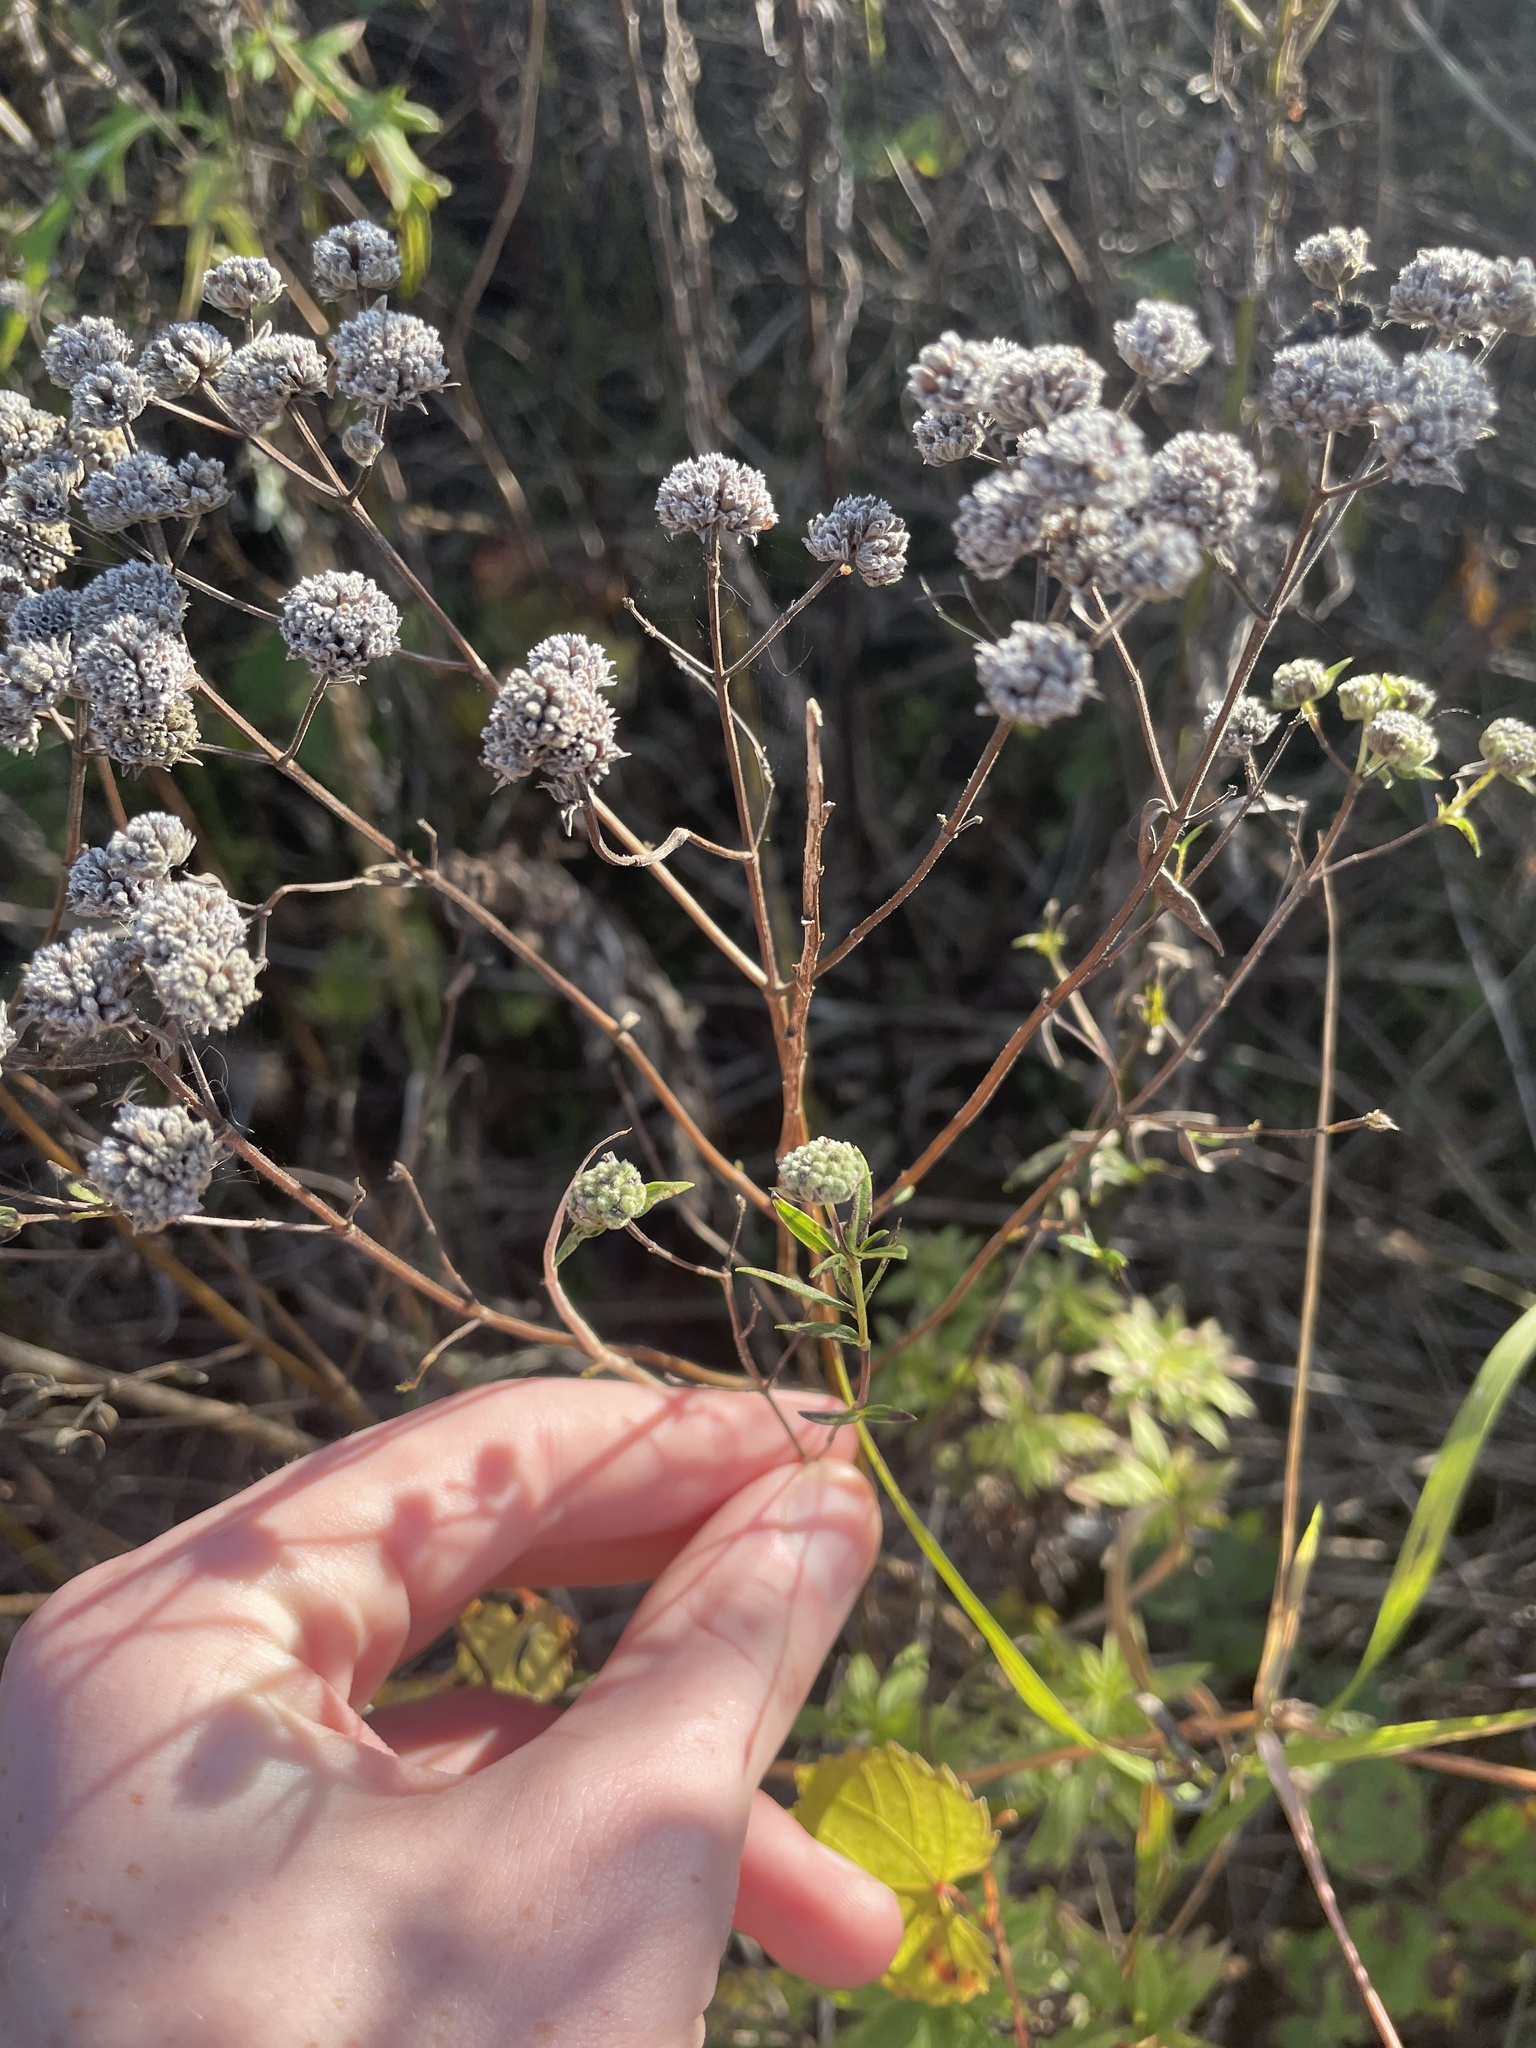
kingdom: Plantae
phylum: Tracheophyta
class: Magnoliopsida
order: Lamiales
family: Lamiaceae
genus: Pycnanthemum
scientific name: Pycnanthemum virginianum
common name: Virginia mountain-mint
